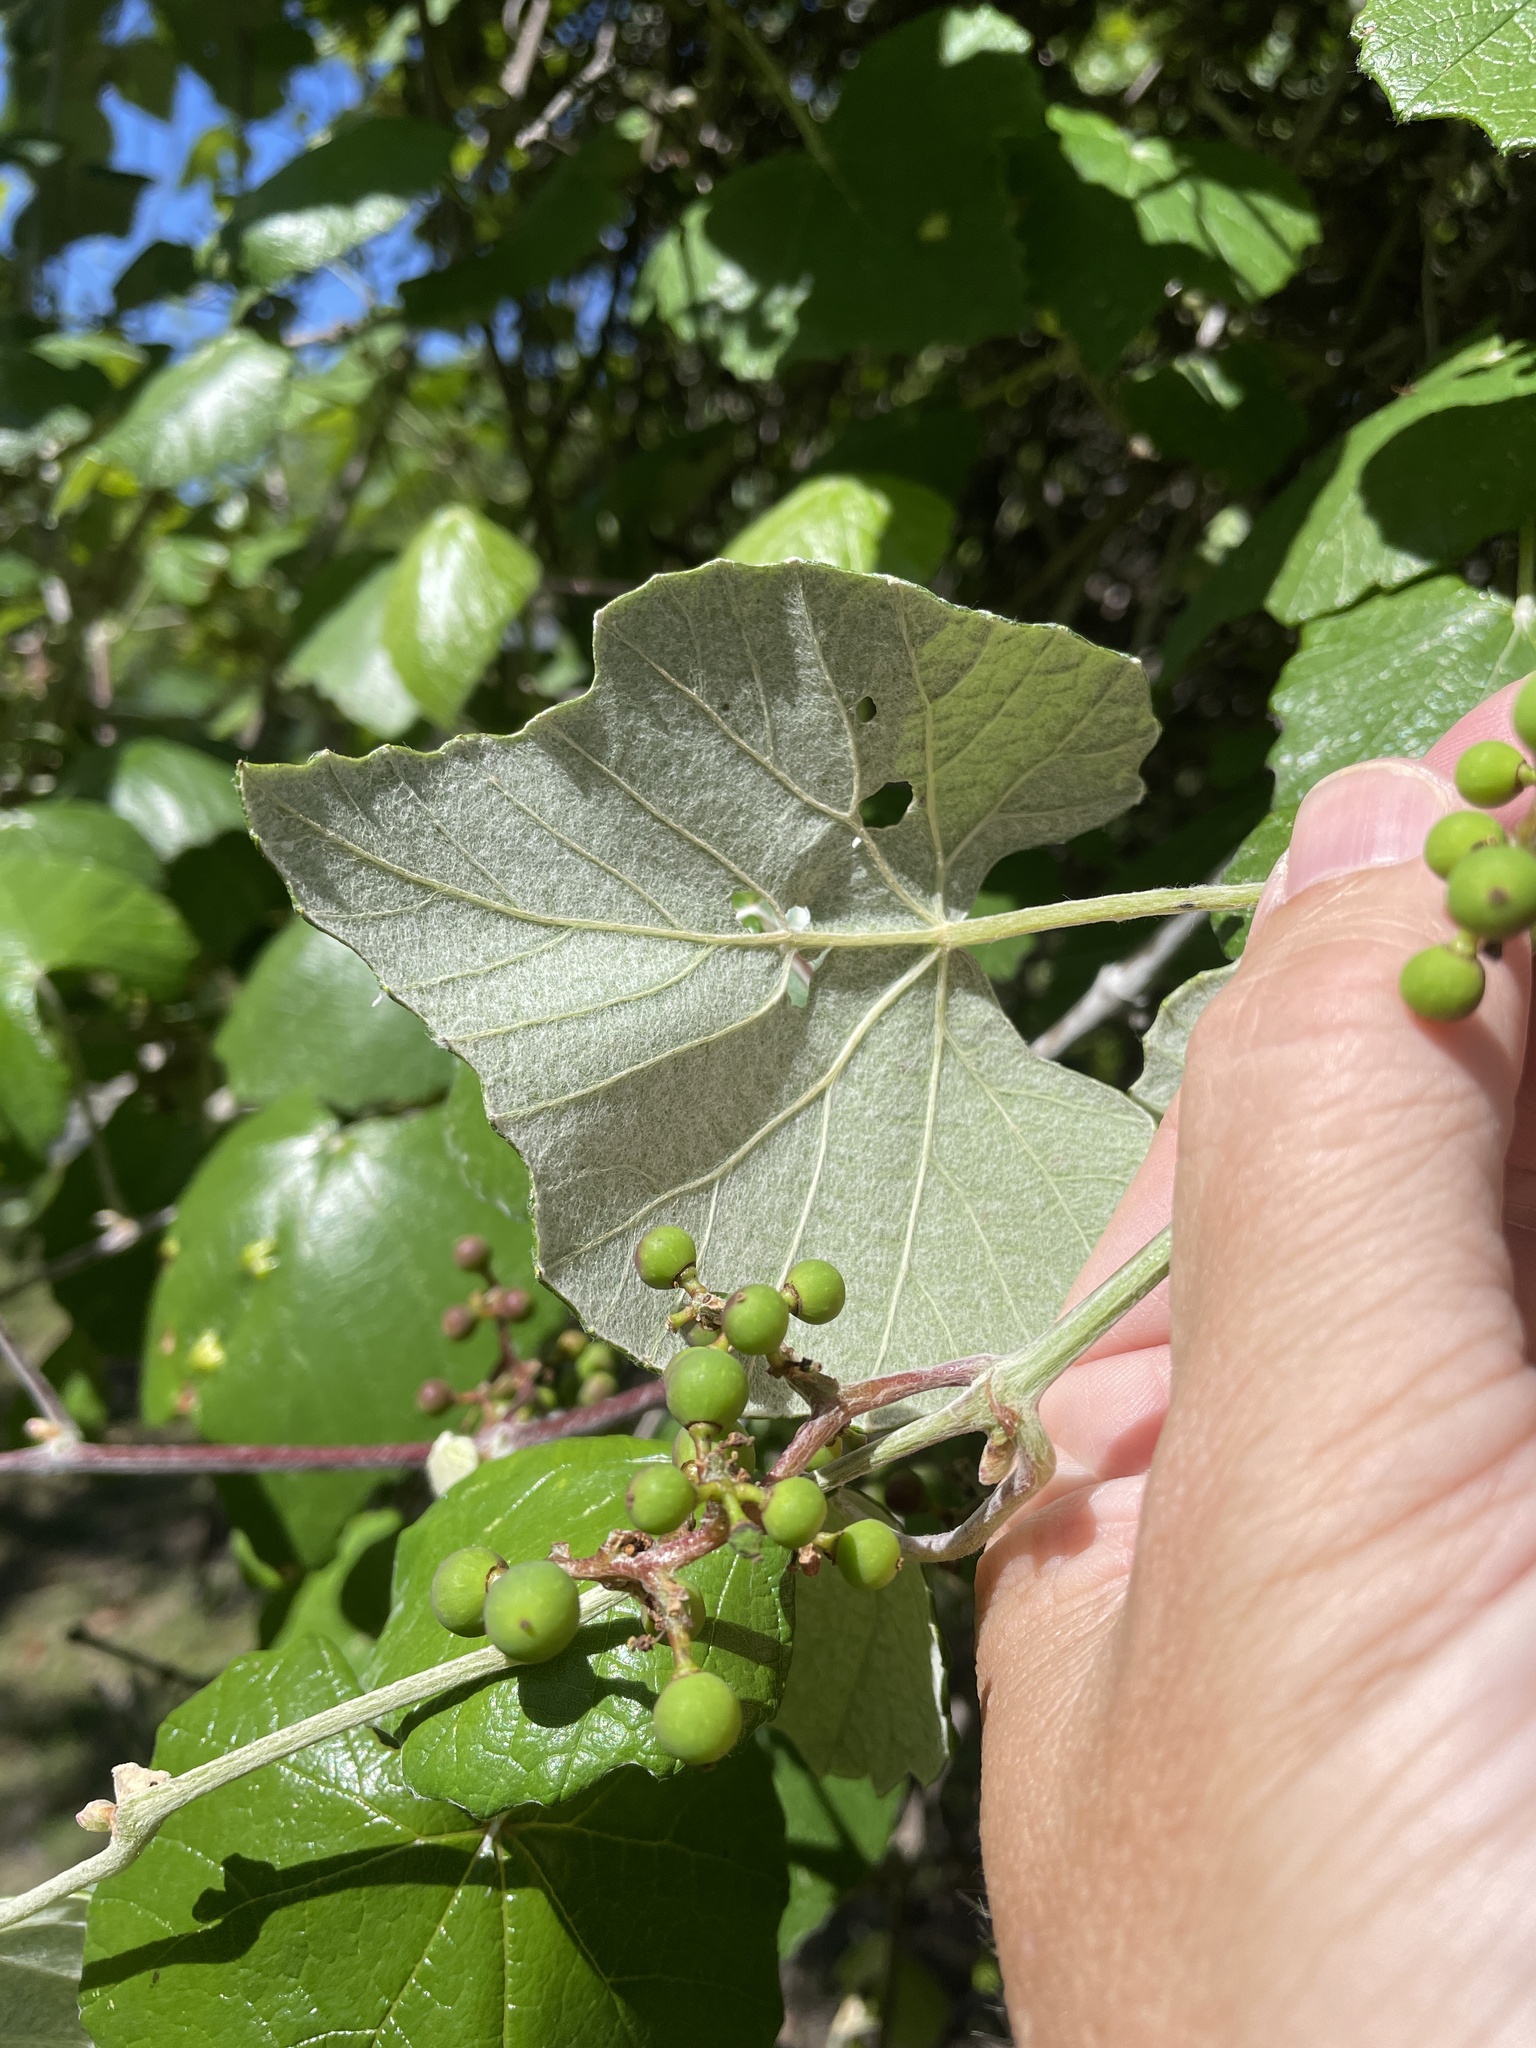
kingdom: Plantae
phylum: Tracheophyta
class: Magnoliopsida
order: Vitales
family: Vitaceae
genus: Vitis
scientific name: Vitis mustangensis
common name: Mustang grape
